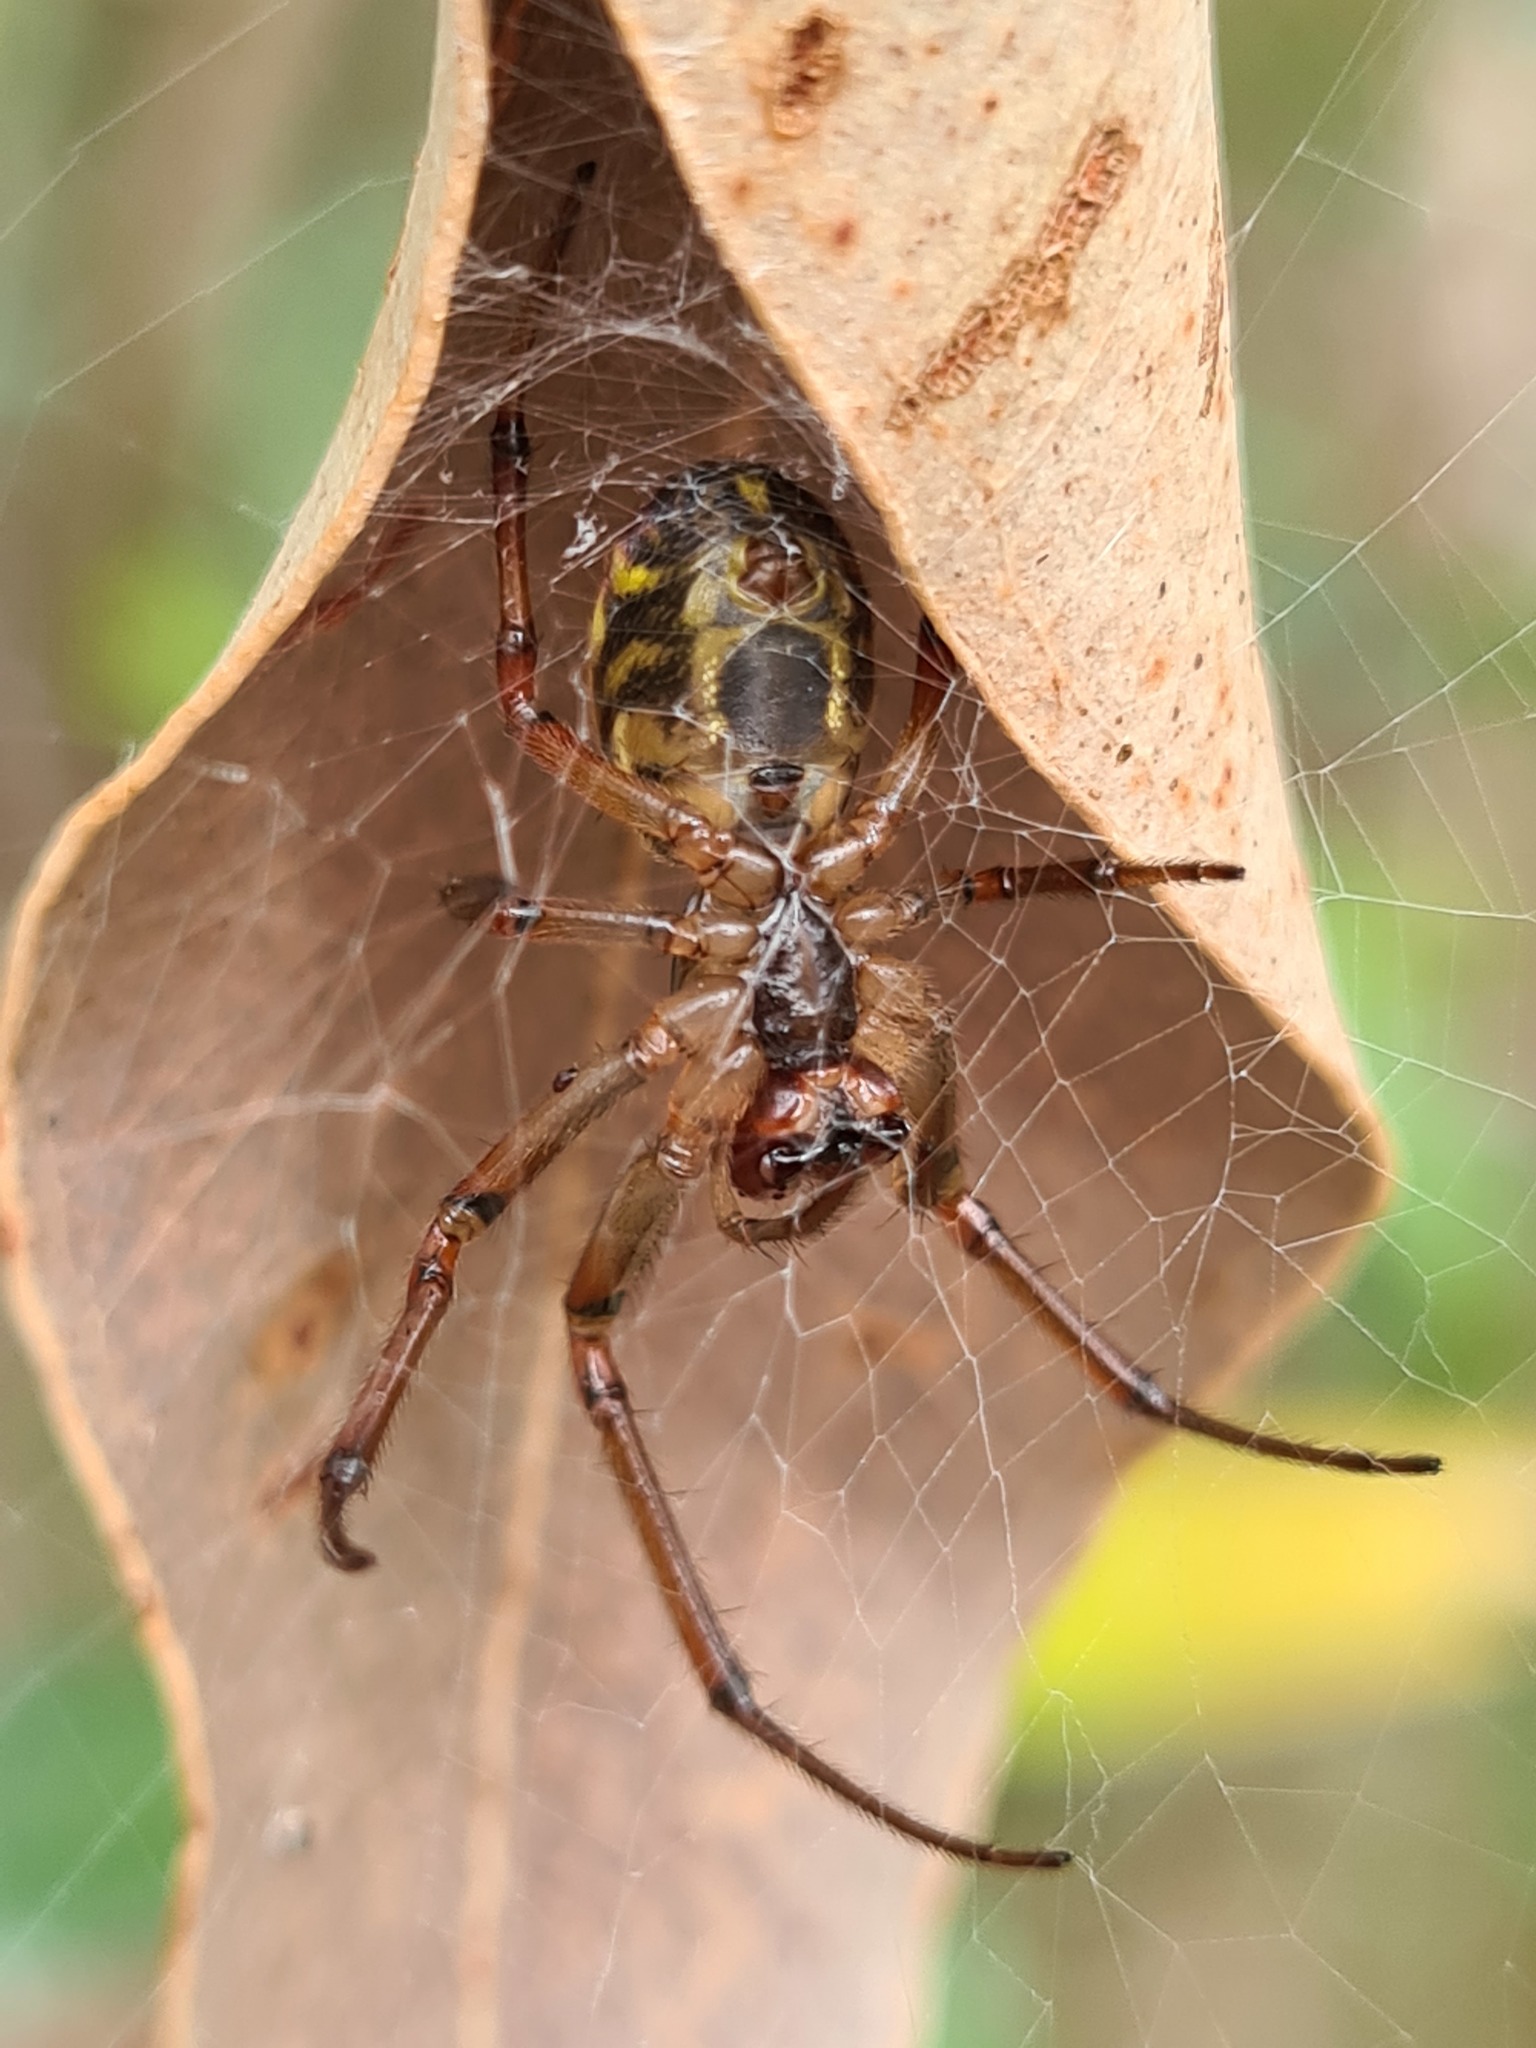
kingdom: Animalia
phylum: Arthropoda
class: Arachnida
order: Araneae
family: Araneidae
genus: Phonognatha
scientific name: Phonognatha graeffei
